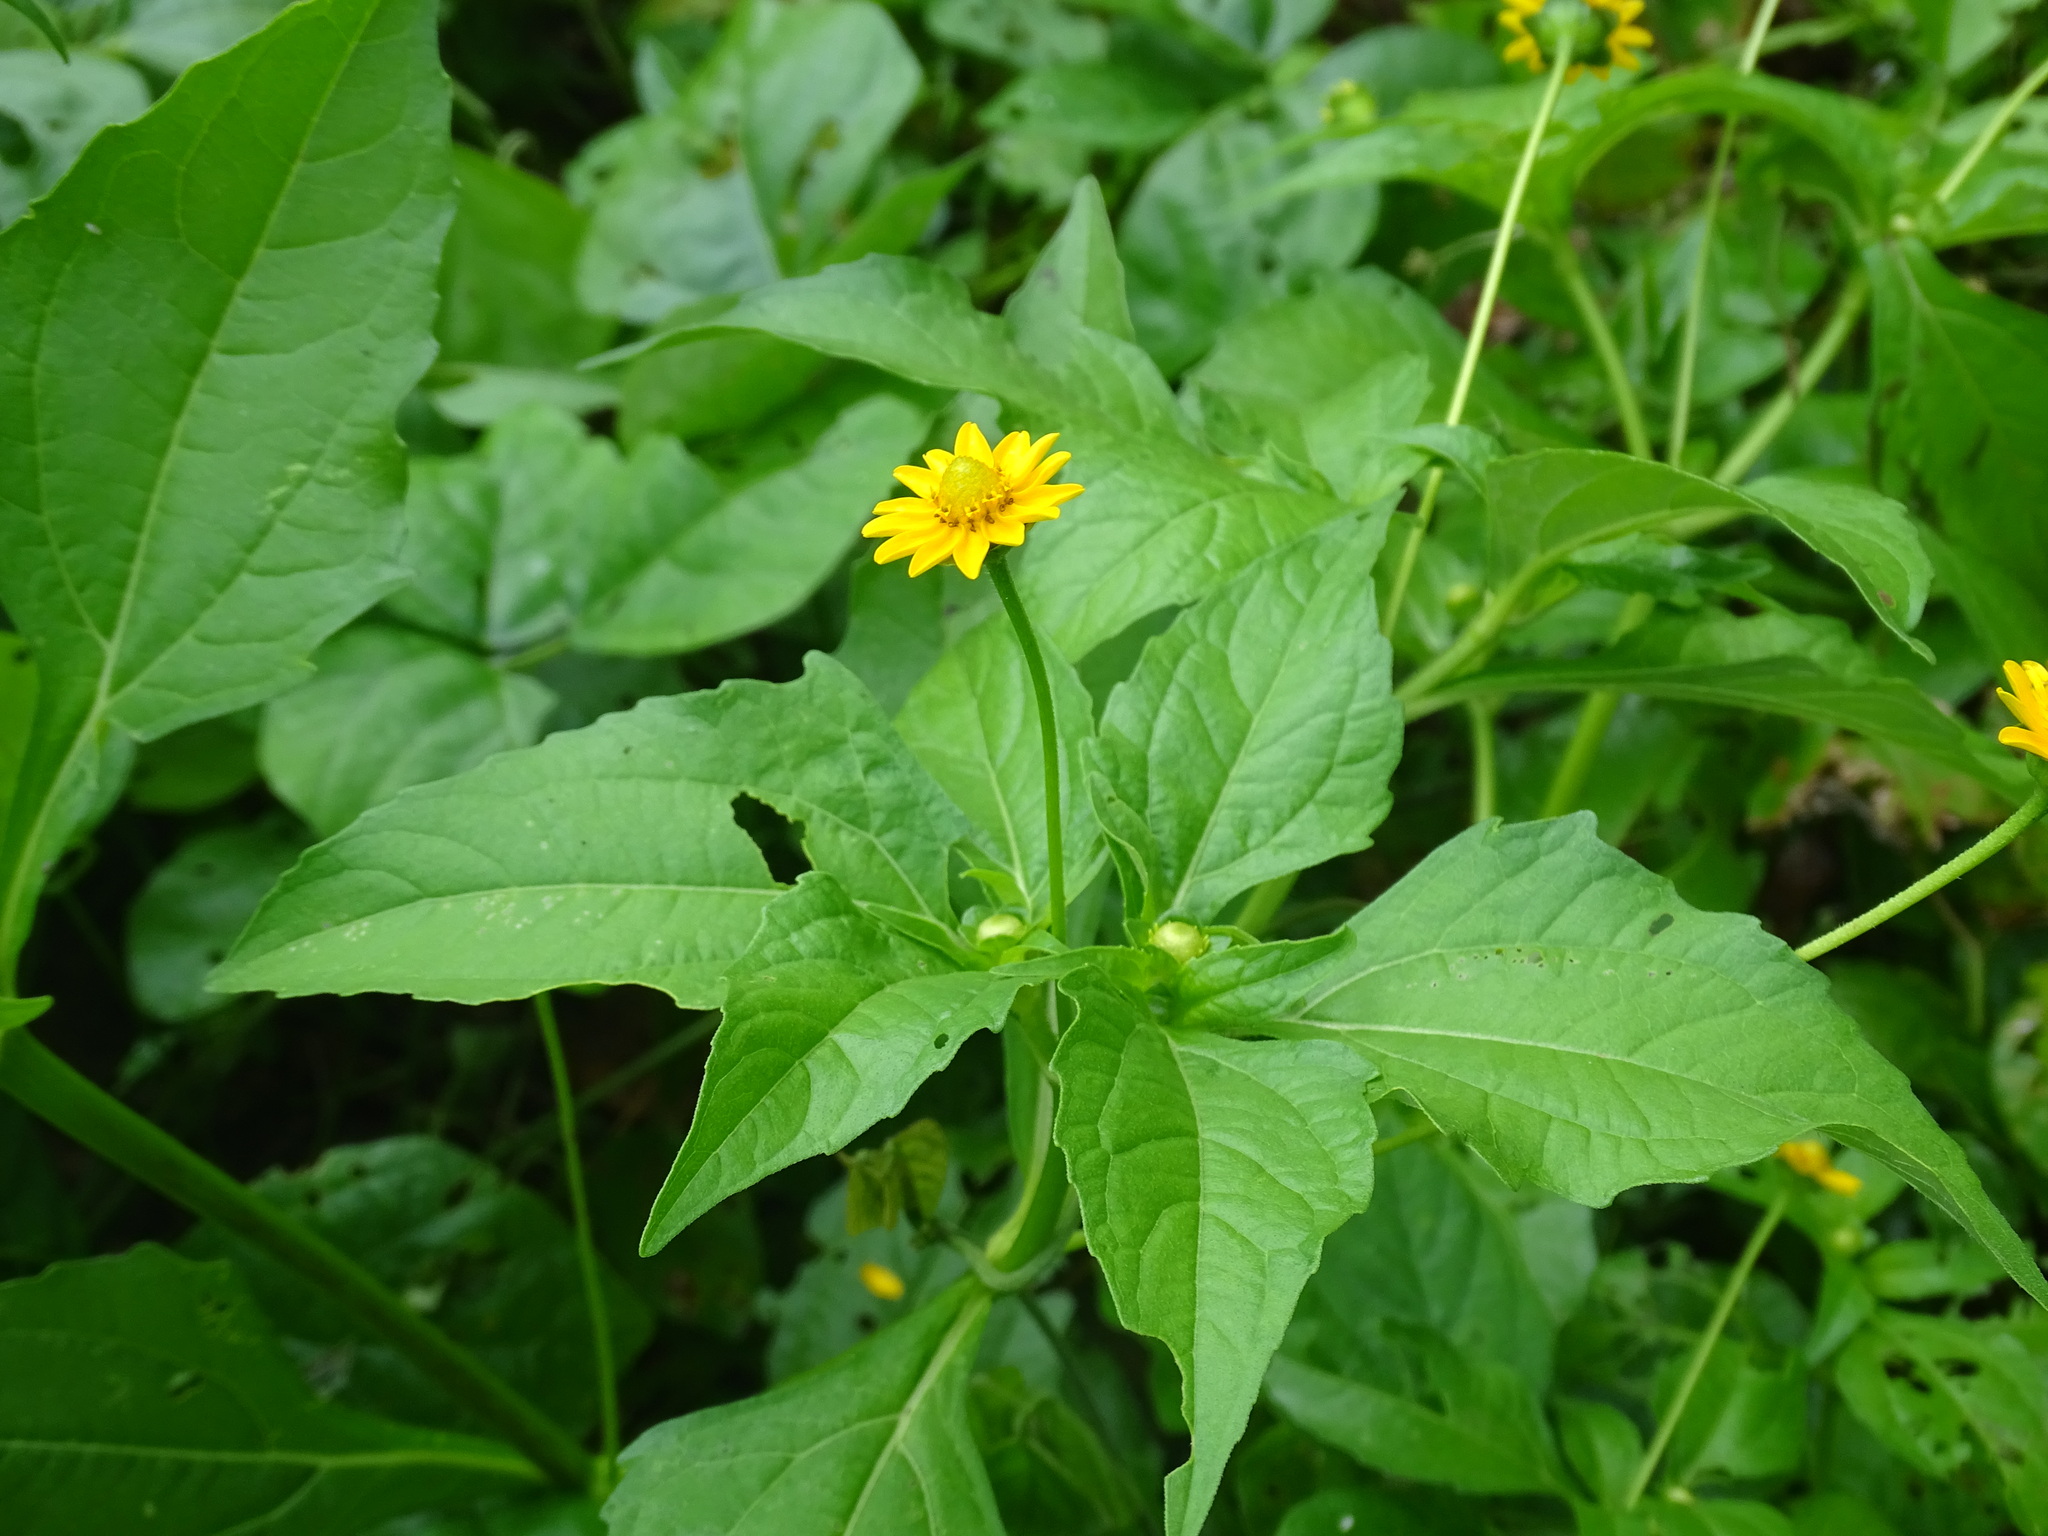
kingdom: Plantae
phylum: Tracheophyta
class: Magnoliopsida
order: Asterales
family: Asteraceae
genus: Melampodium
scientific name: Melampodium divaricatum
